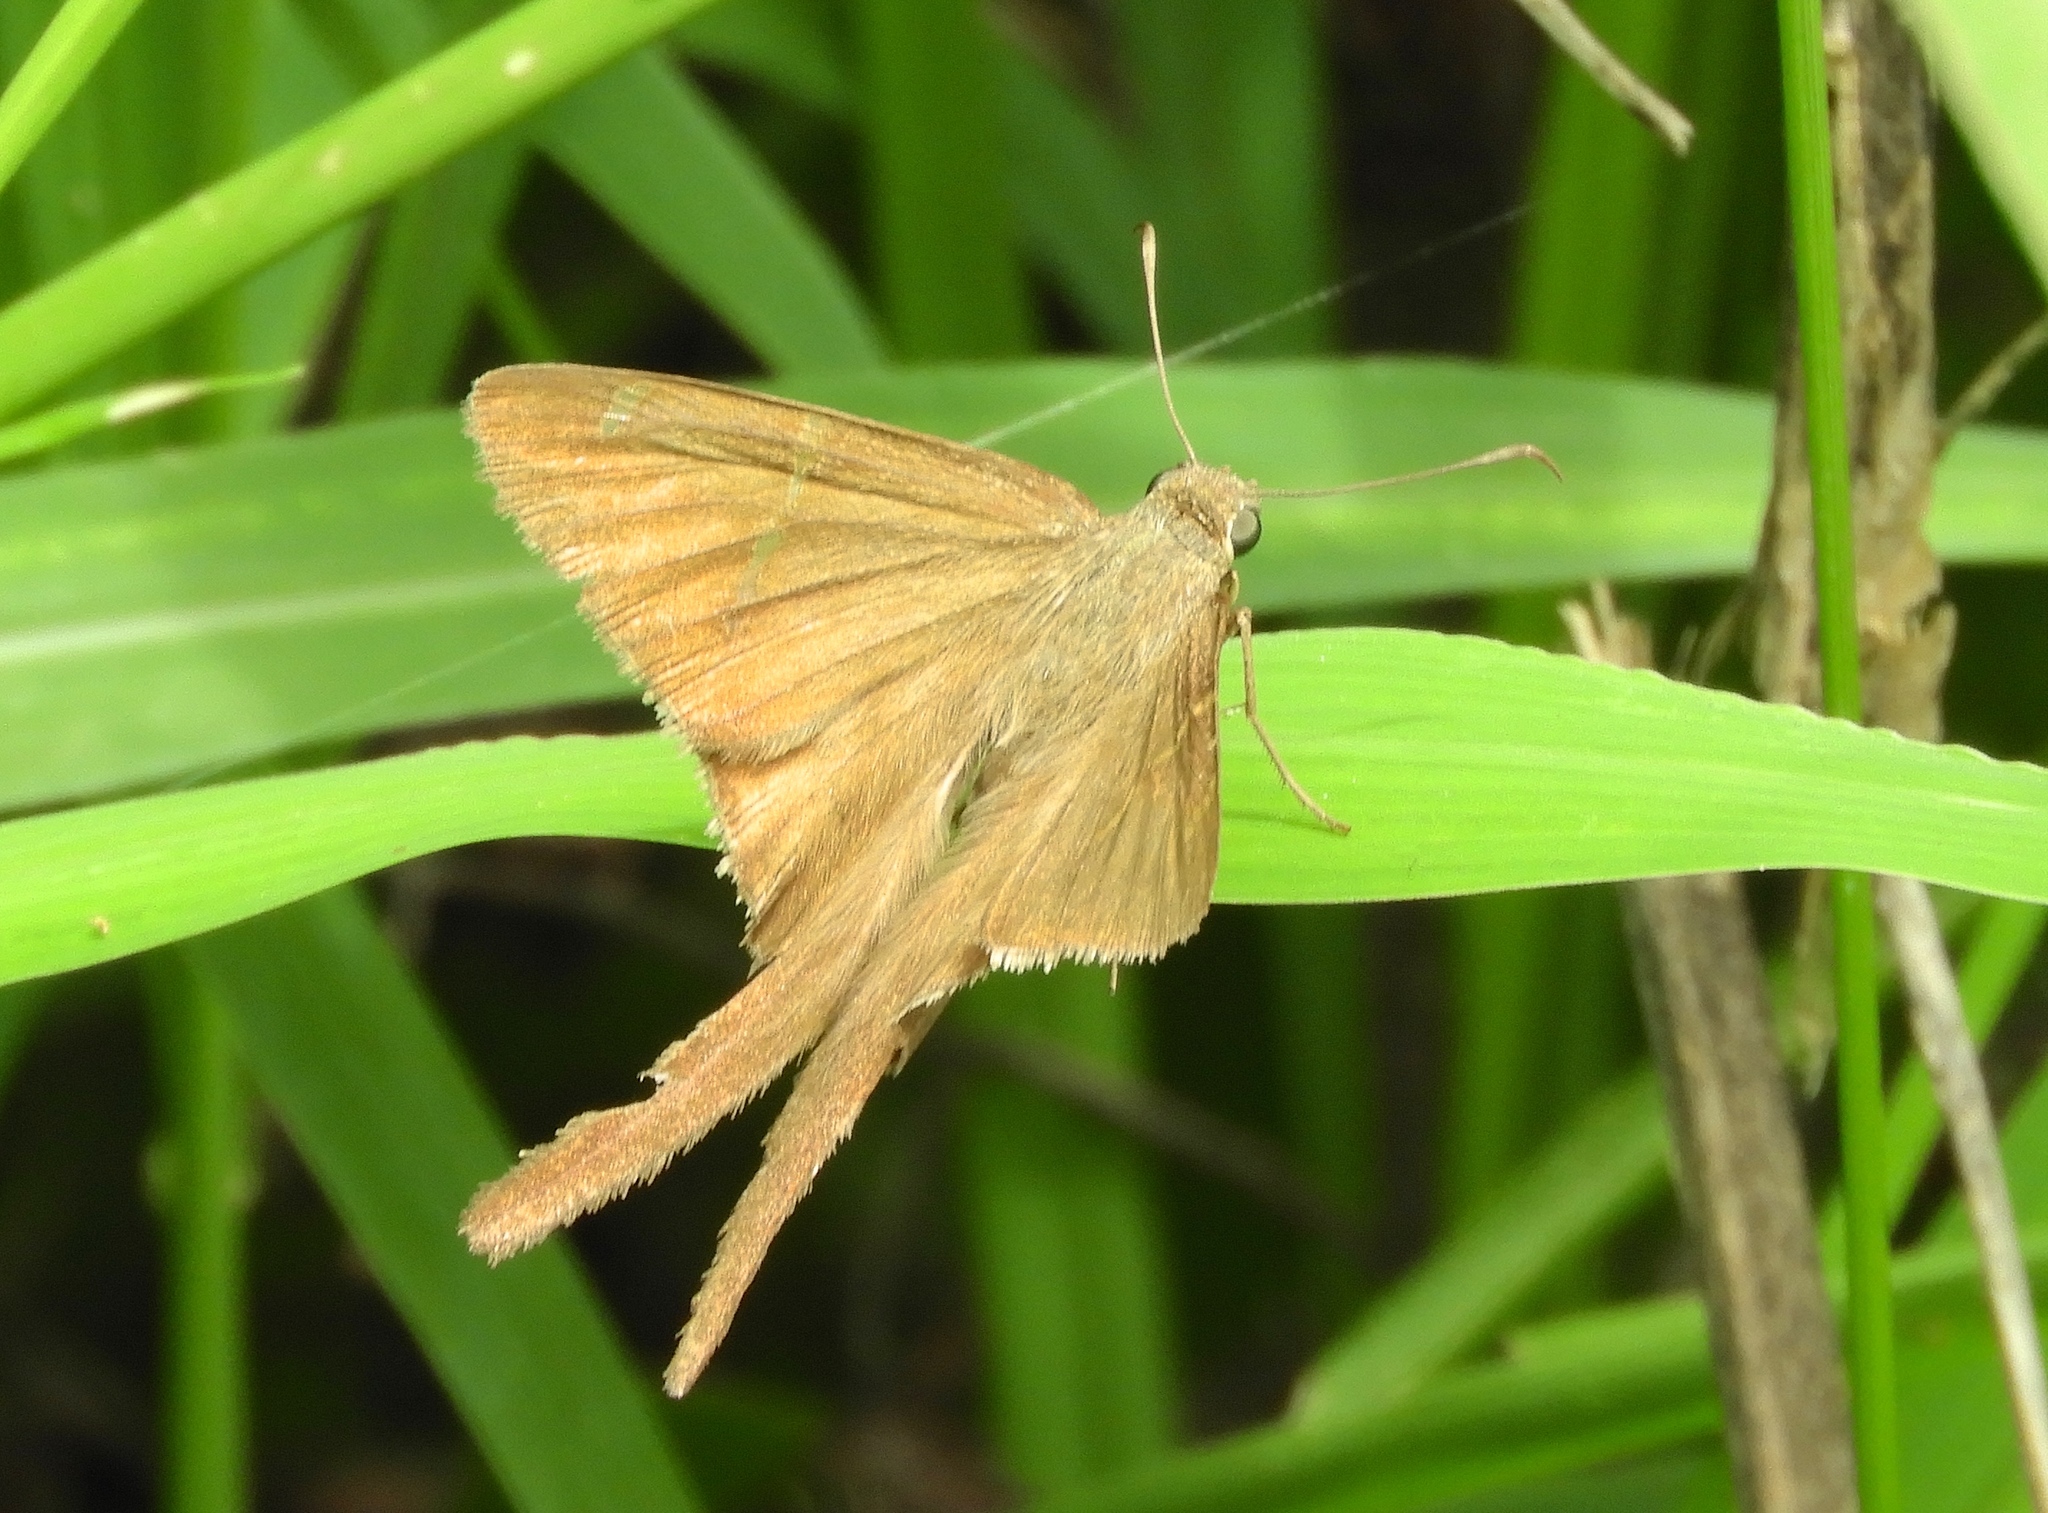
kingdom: Animalia
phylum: Arthropoda
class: Insecta
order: Lepidoptera
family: Hesperiidae
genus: Urbanus
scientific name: Urbanus procne
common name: Brown longtail
